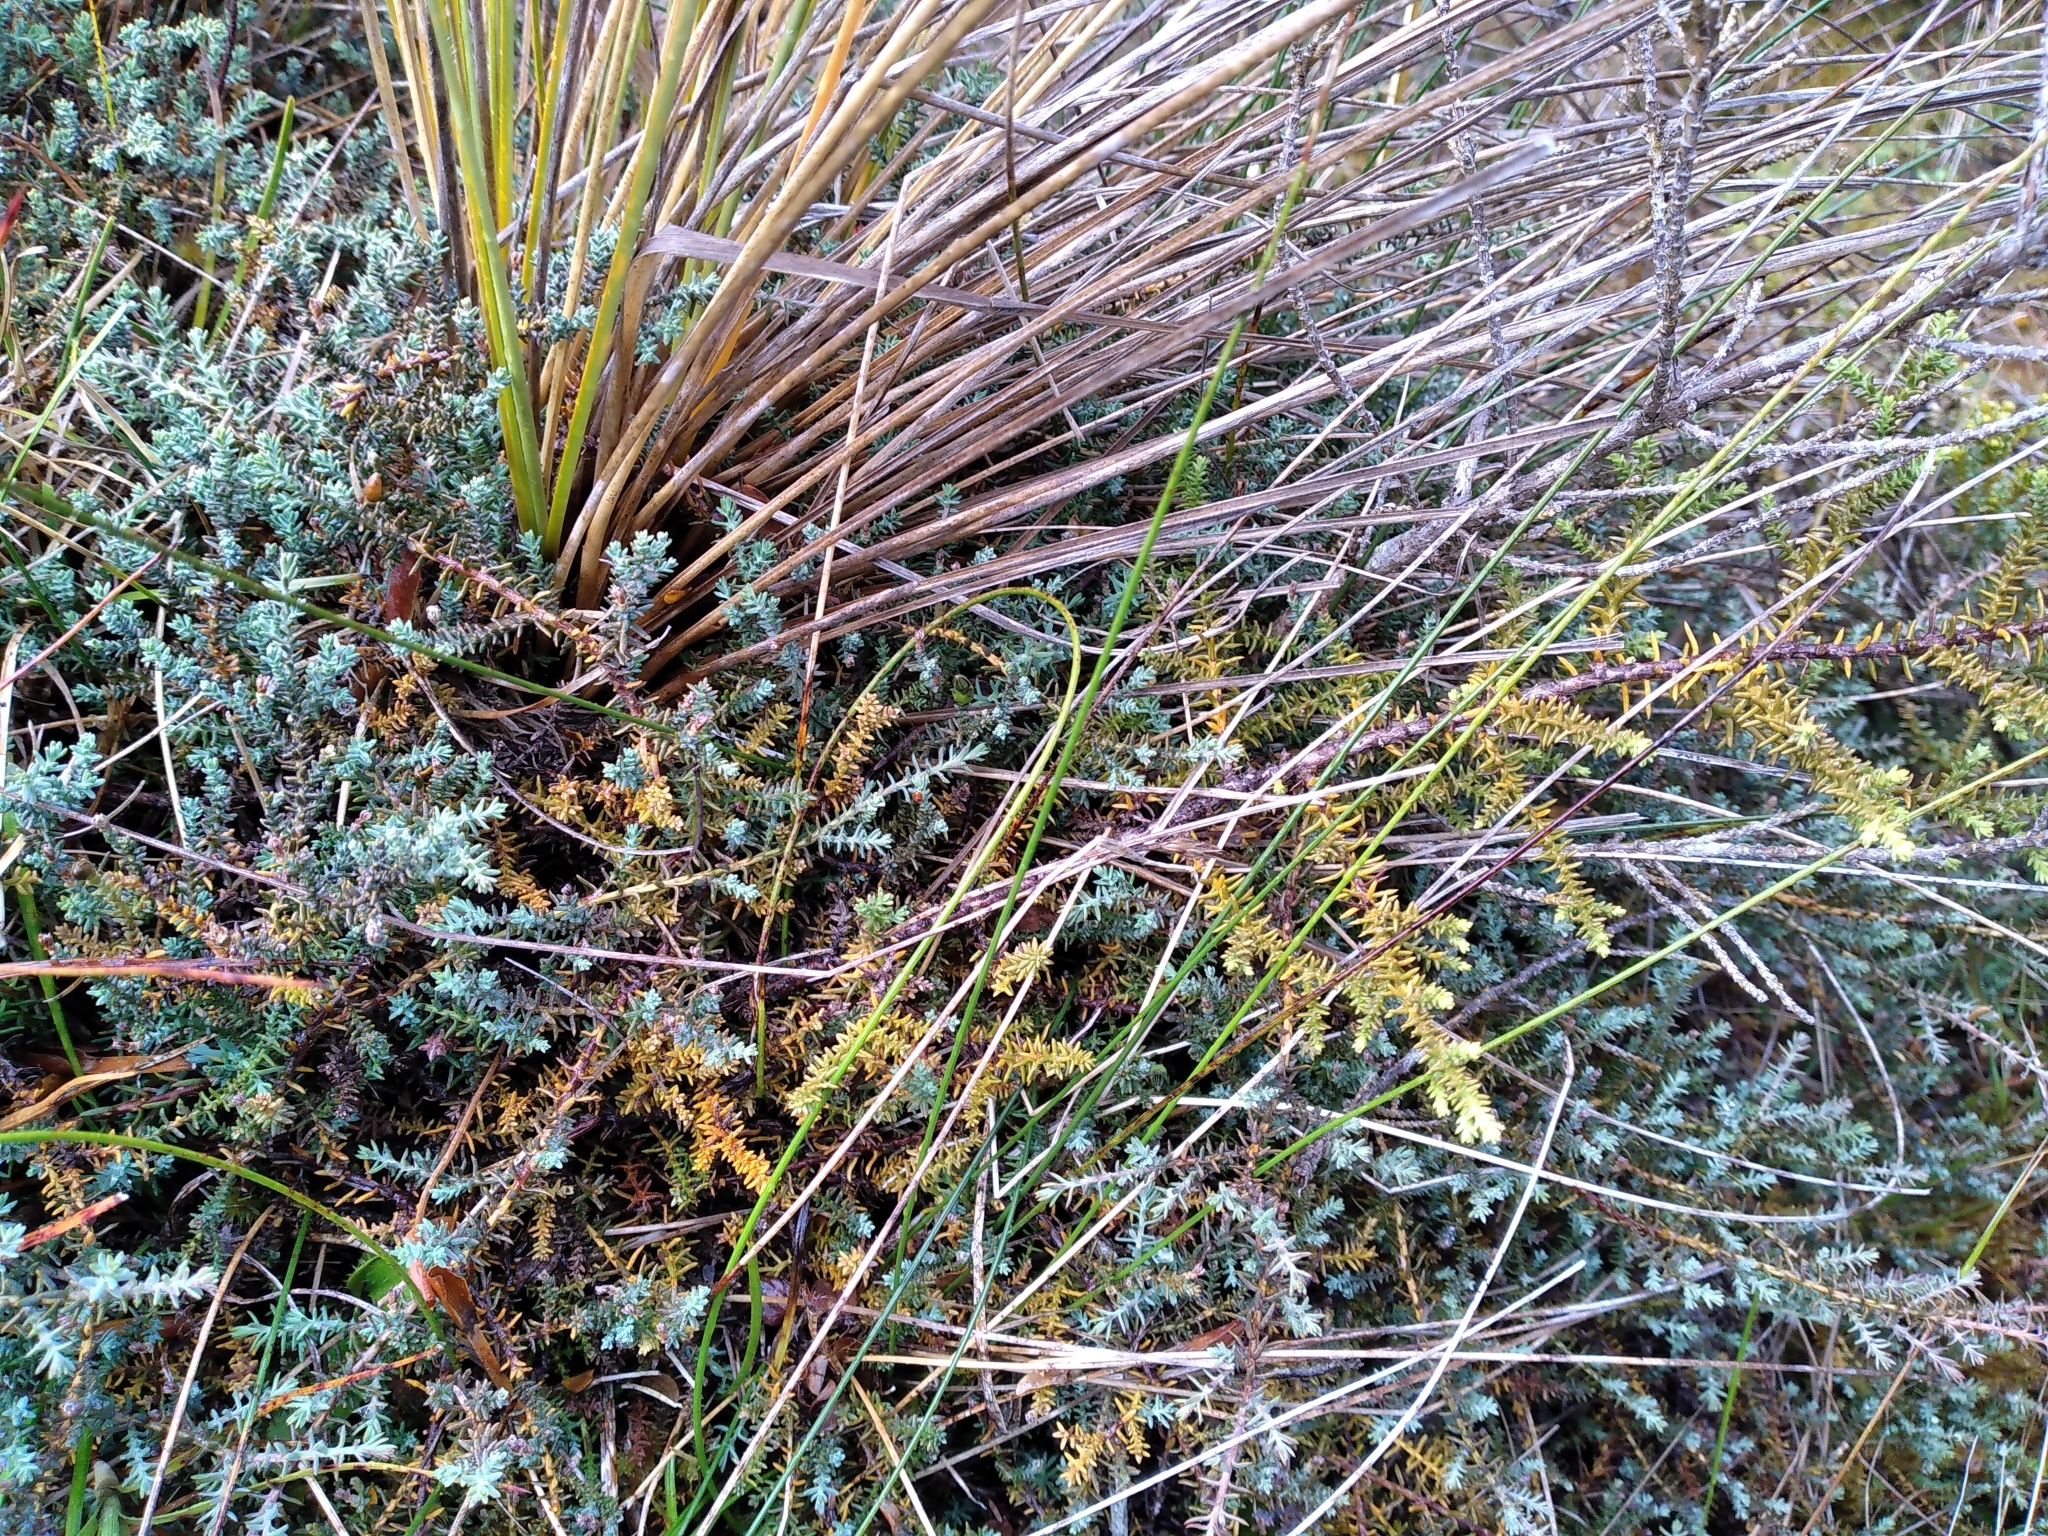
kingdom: Plantae
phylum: Tracheophyta
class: Pinopsida
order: Pinales
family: Podocarpaceae
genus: Lepidothamnus
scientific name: Lepidothamnus laxifolius
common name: Pygmy pine
